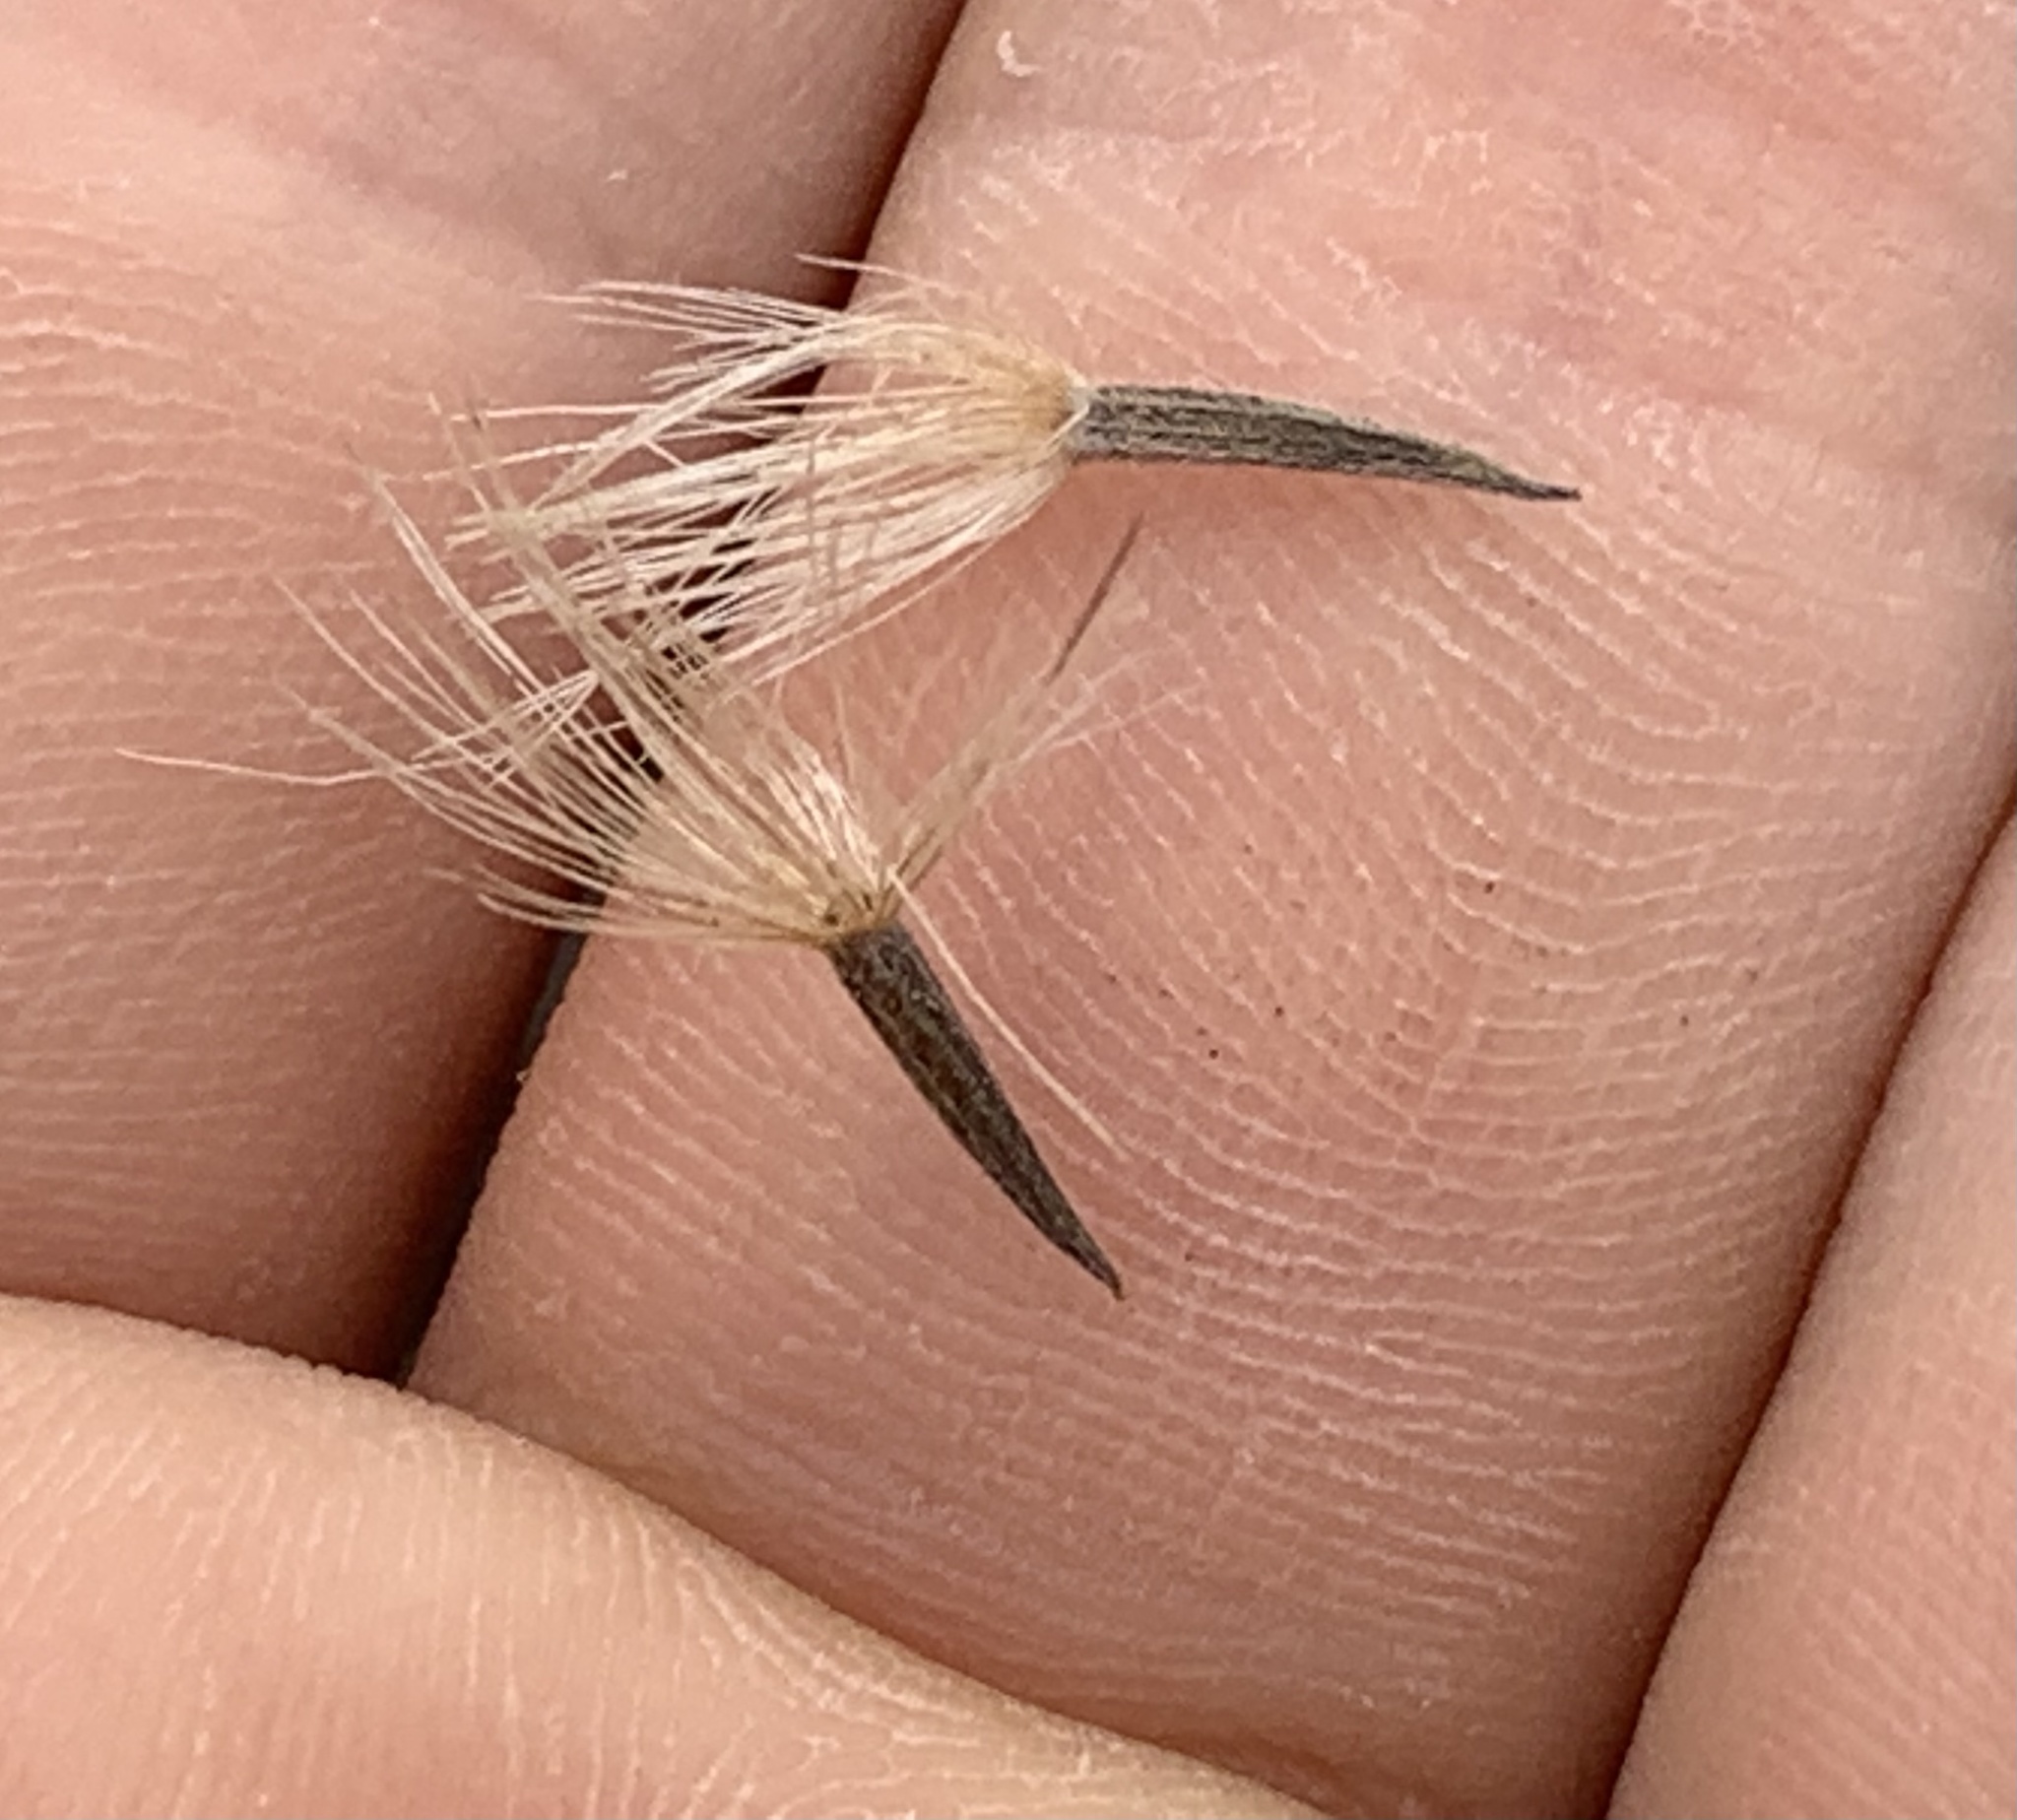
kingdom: Plantae
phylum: Tracheophyta
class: Magnoliopsida
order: Asterales
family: Asteraceae
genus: Garberia
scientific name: Garberia heterophylla
